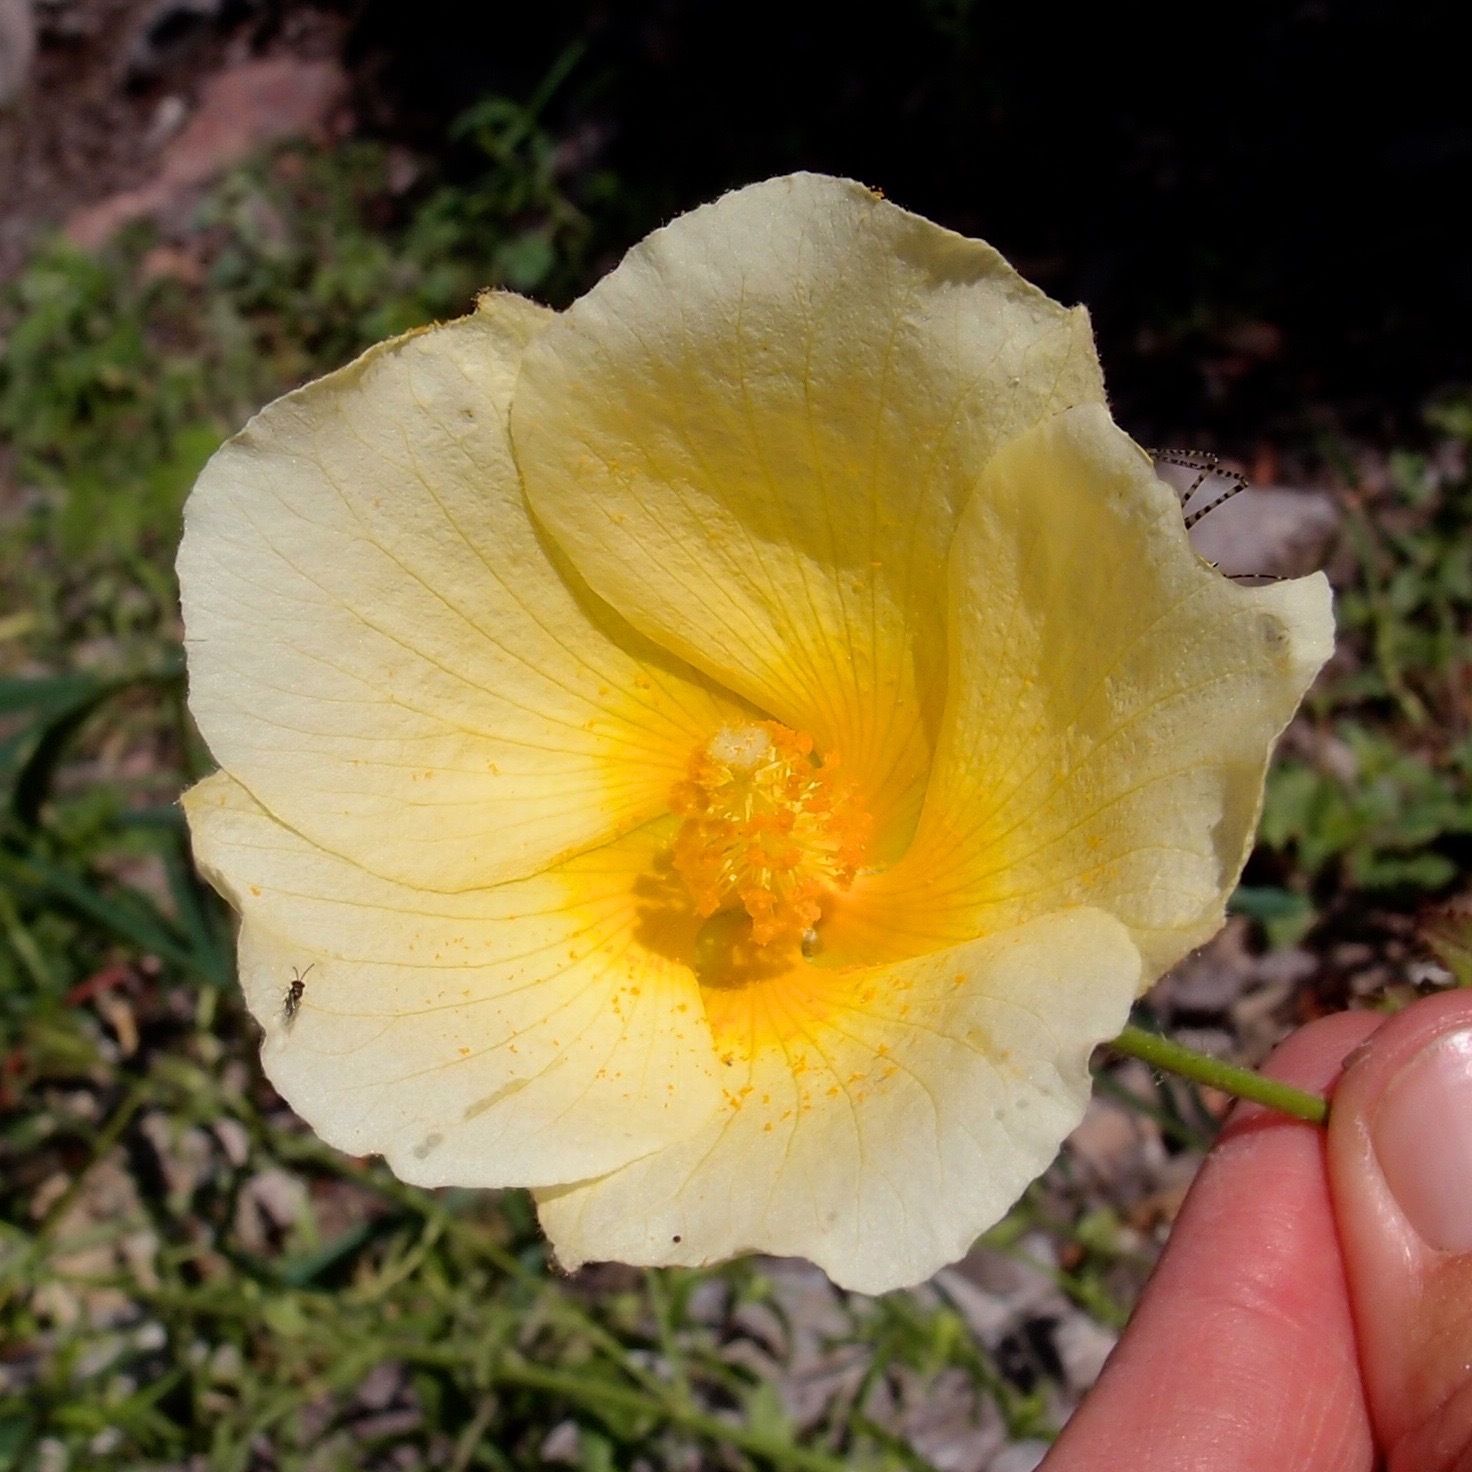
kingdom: Plantae
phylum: Tracheophyta
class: Magnoliopsida
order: Malvales
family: Malvaceae
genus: Hibiscus
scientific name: Hibiscus biseptus
